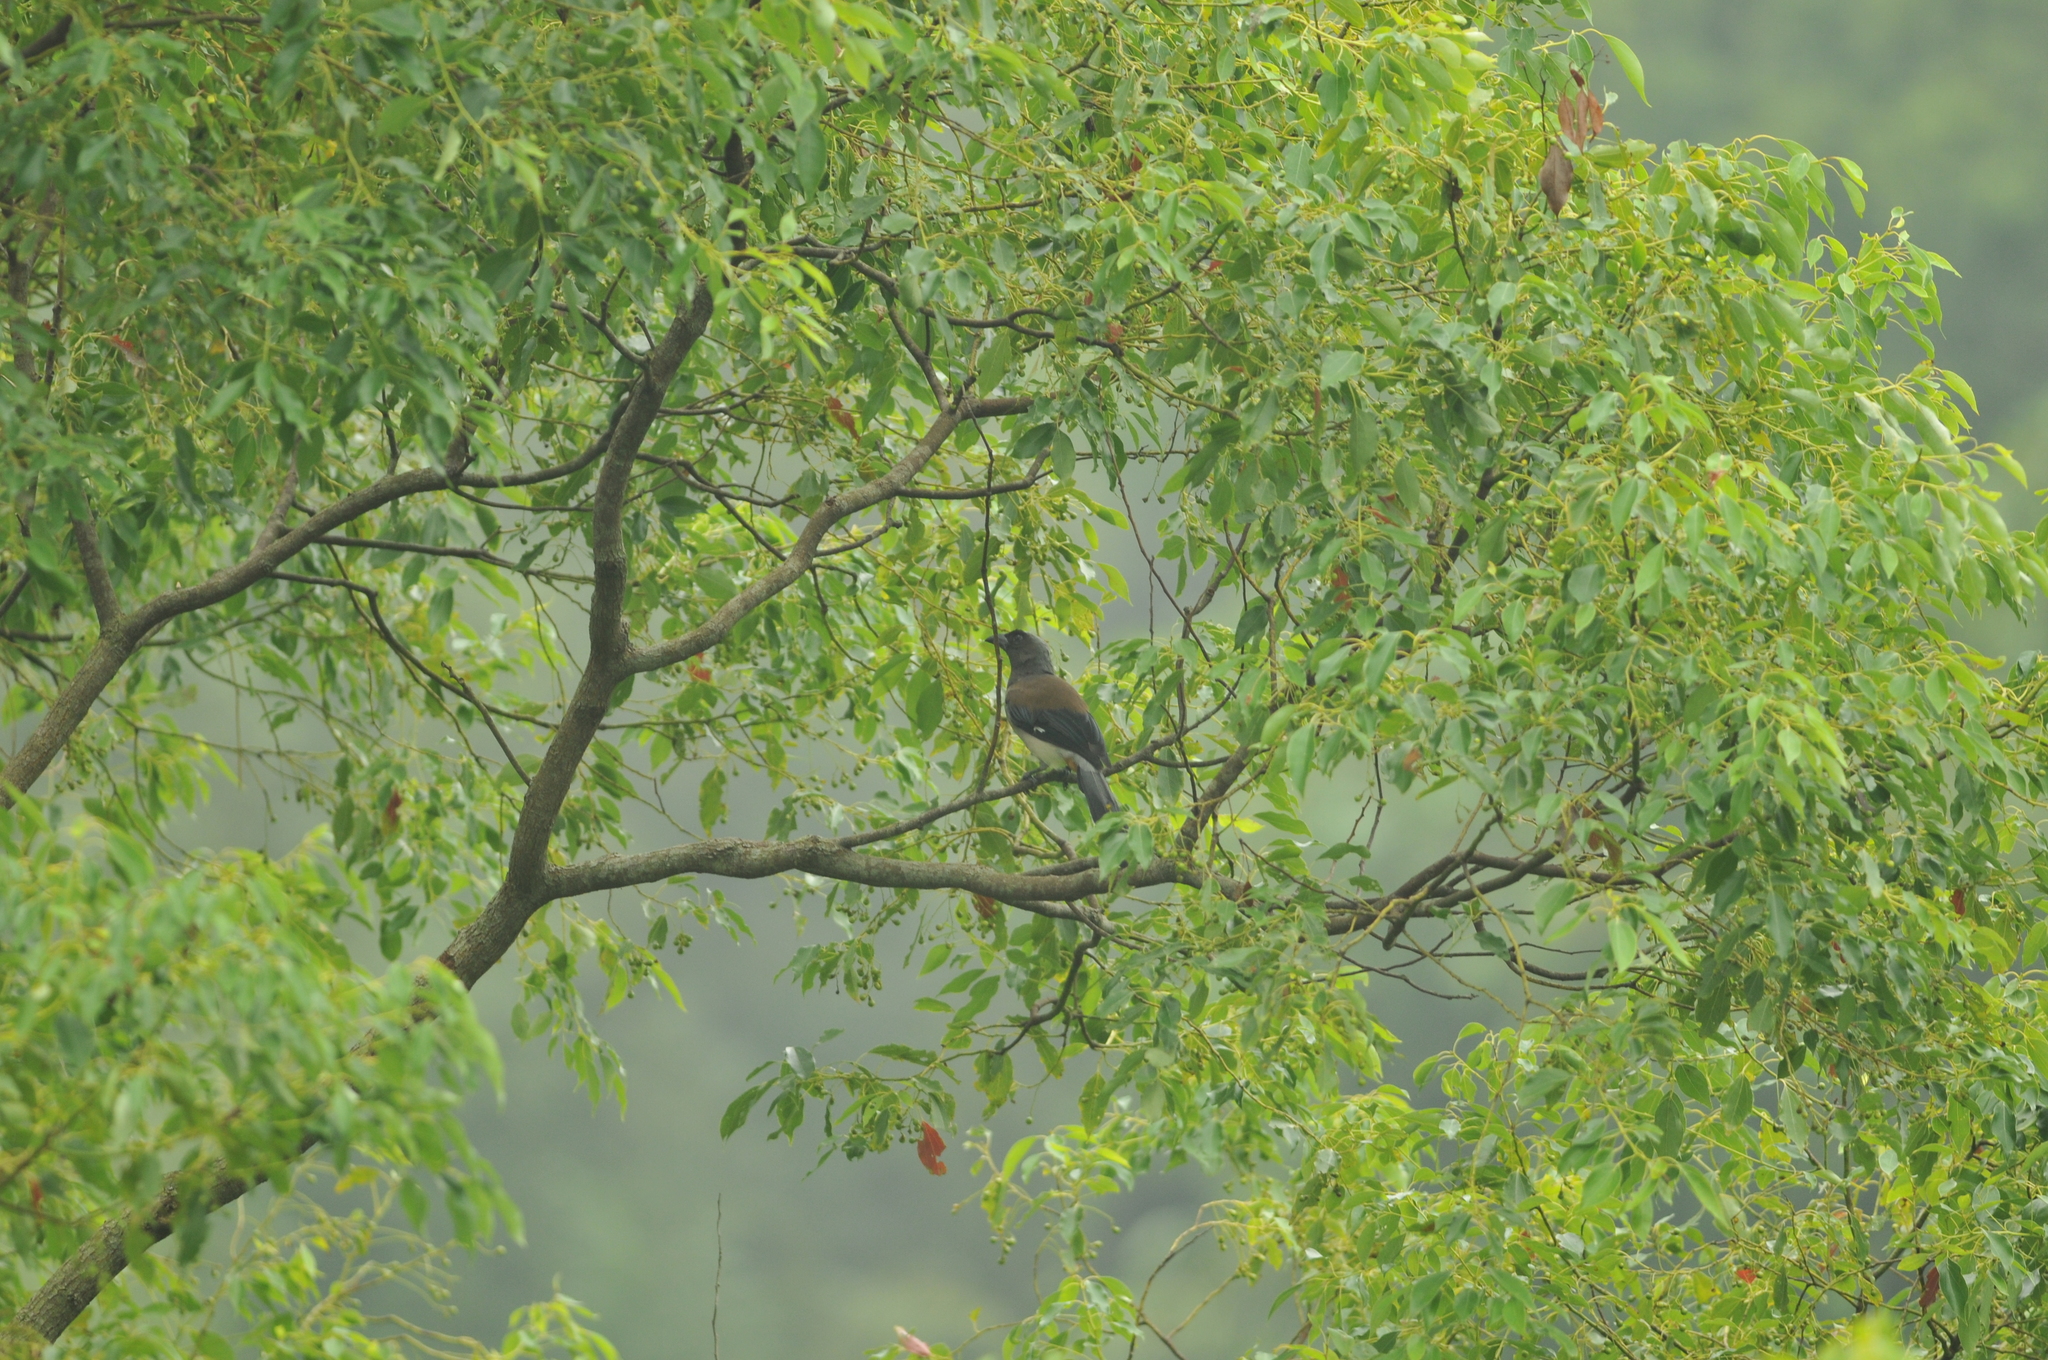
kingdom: Animalia
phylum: Chordata
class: Aves
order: Passeriformes
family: Corvidae
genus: Dendrocitta
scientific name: Dendrocitta formosae
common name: Grey treepie
